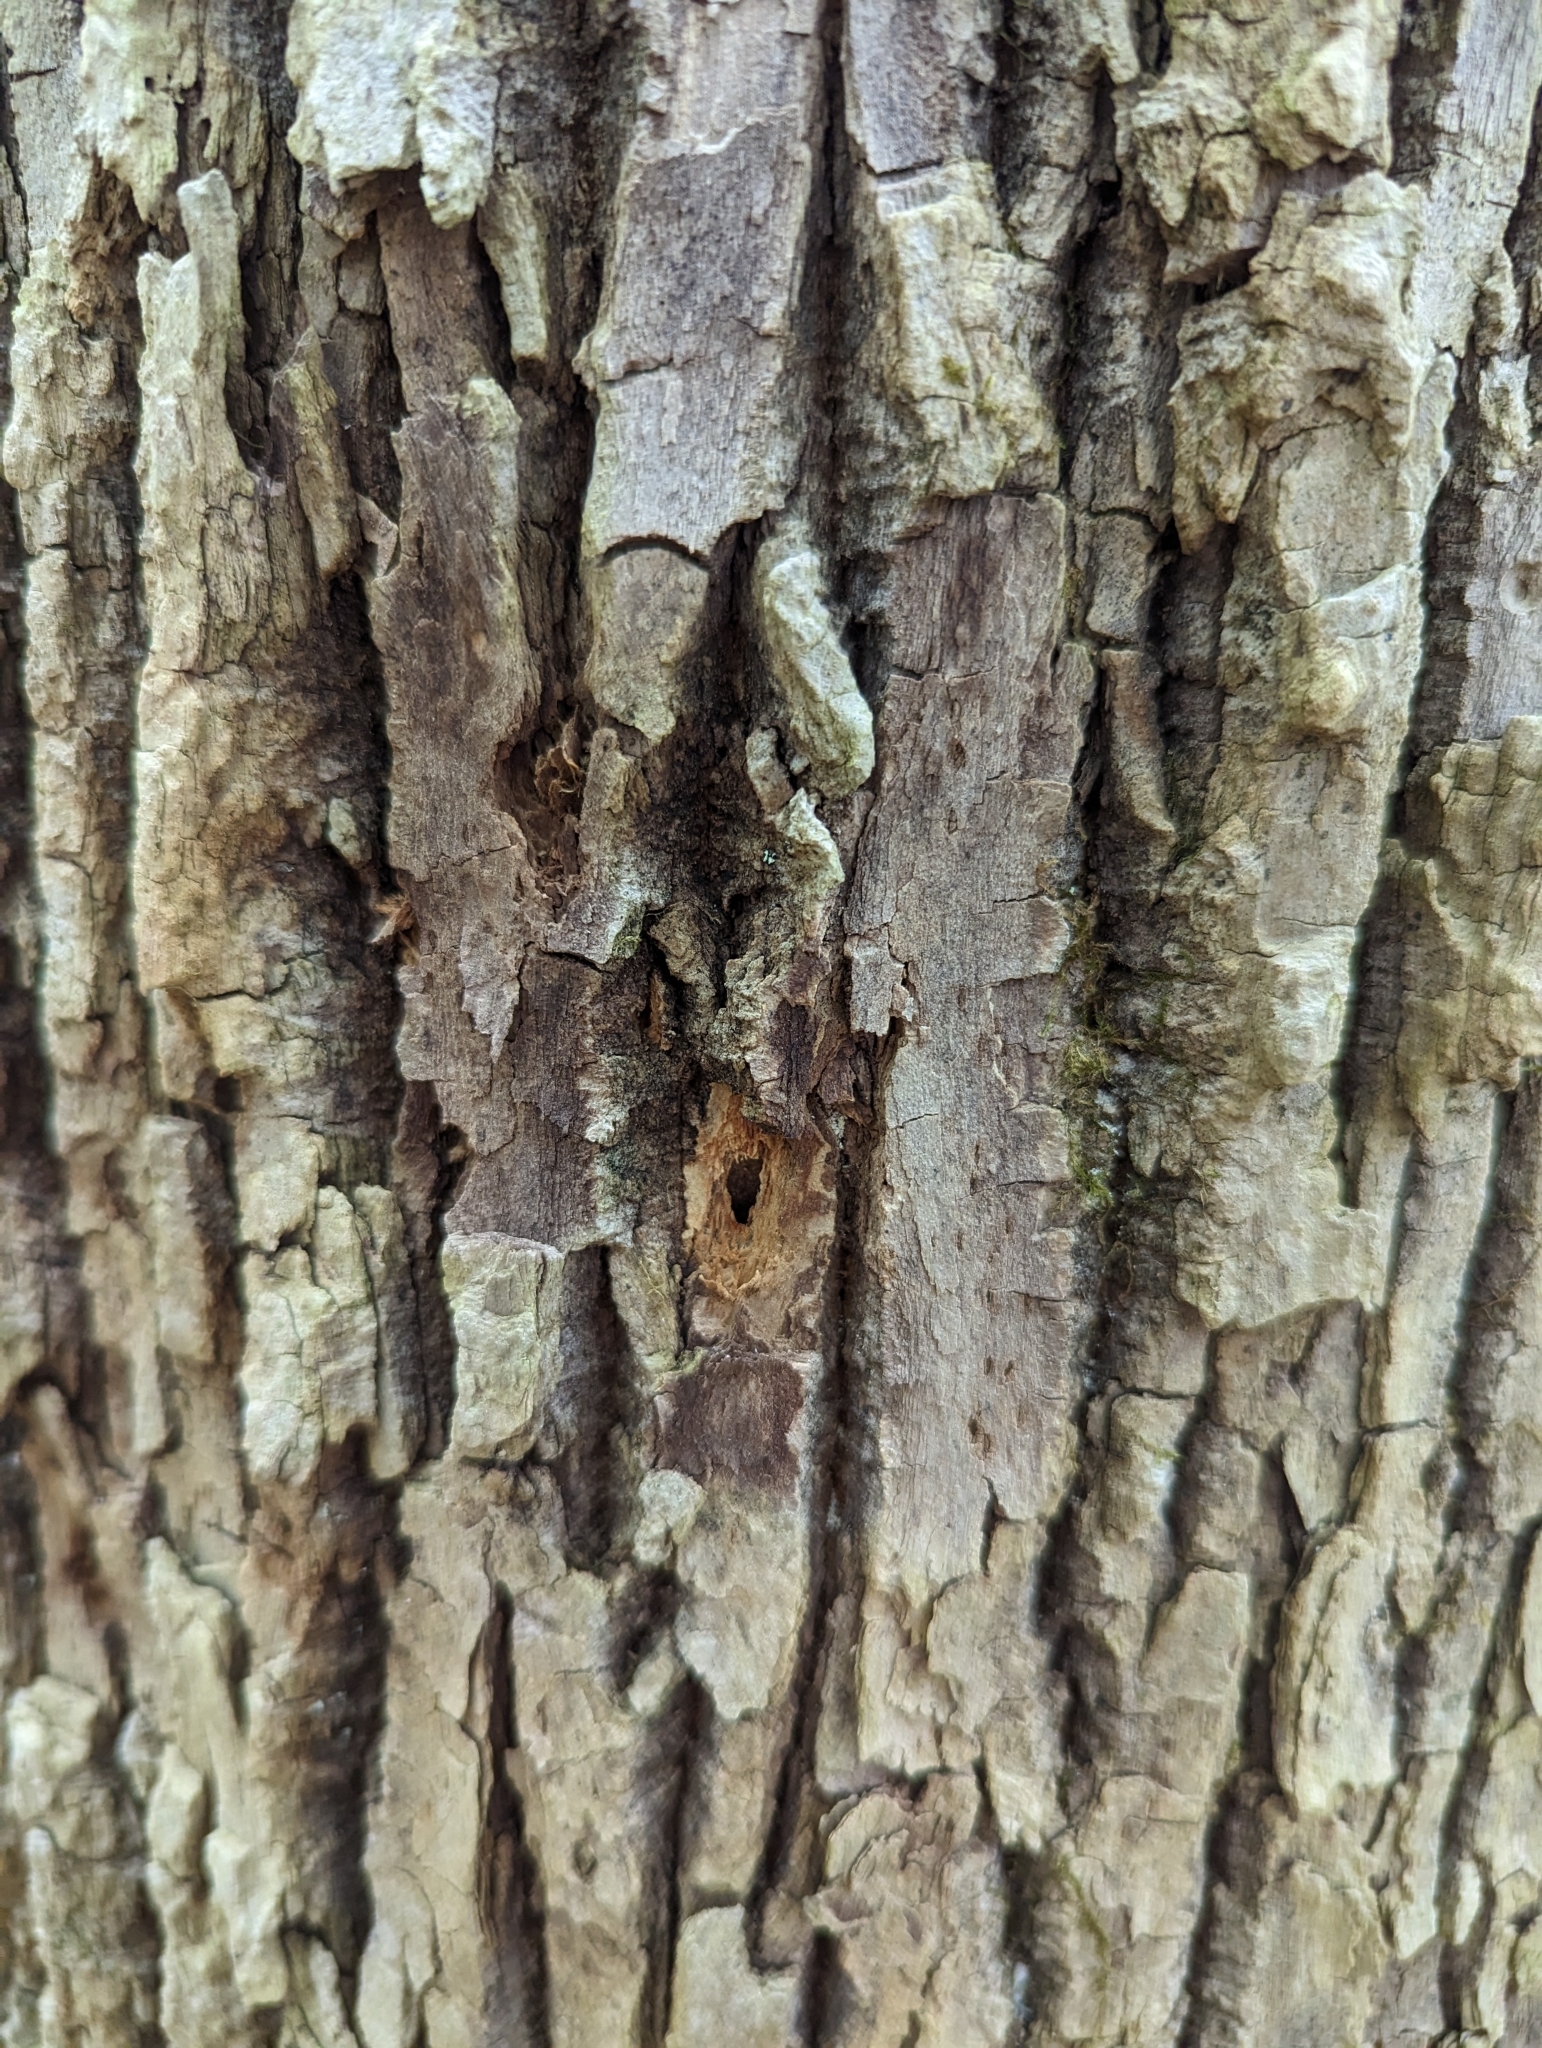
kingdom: Animalia
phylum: Arthropoda
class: Insecta
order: Coleoptera
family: Buprestidae
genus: Agrilus
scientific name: Agrilus planipennis
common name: Emerald ash borer
